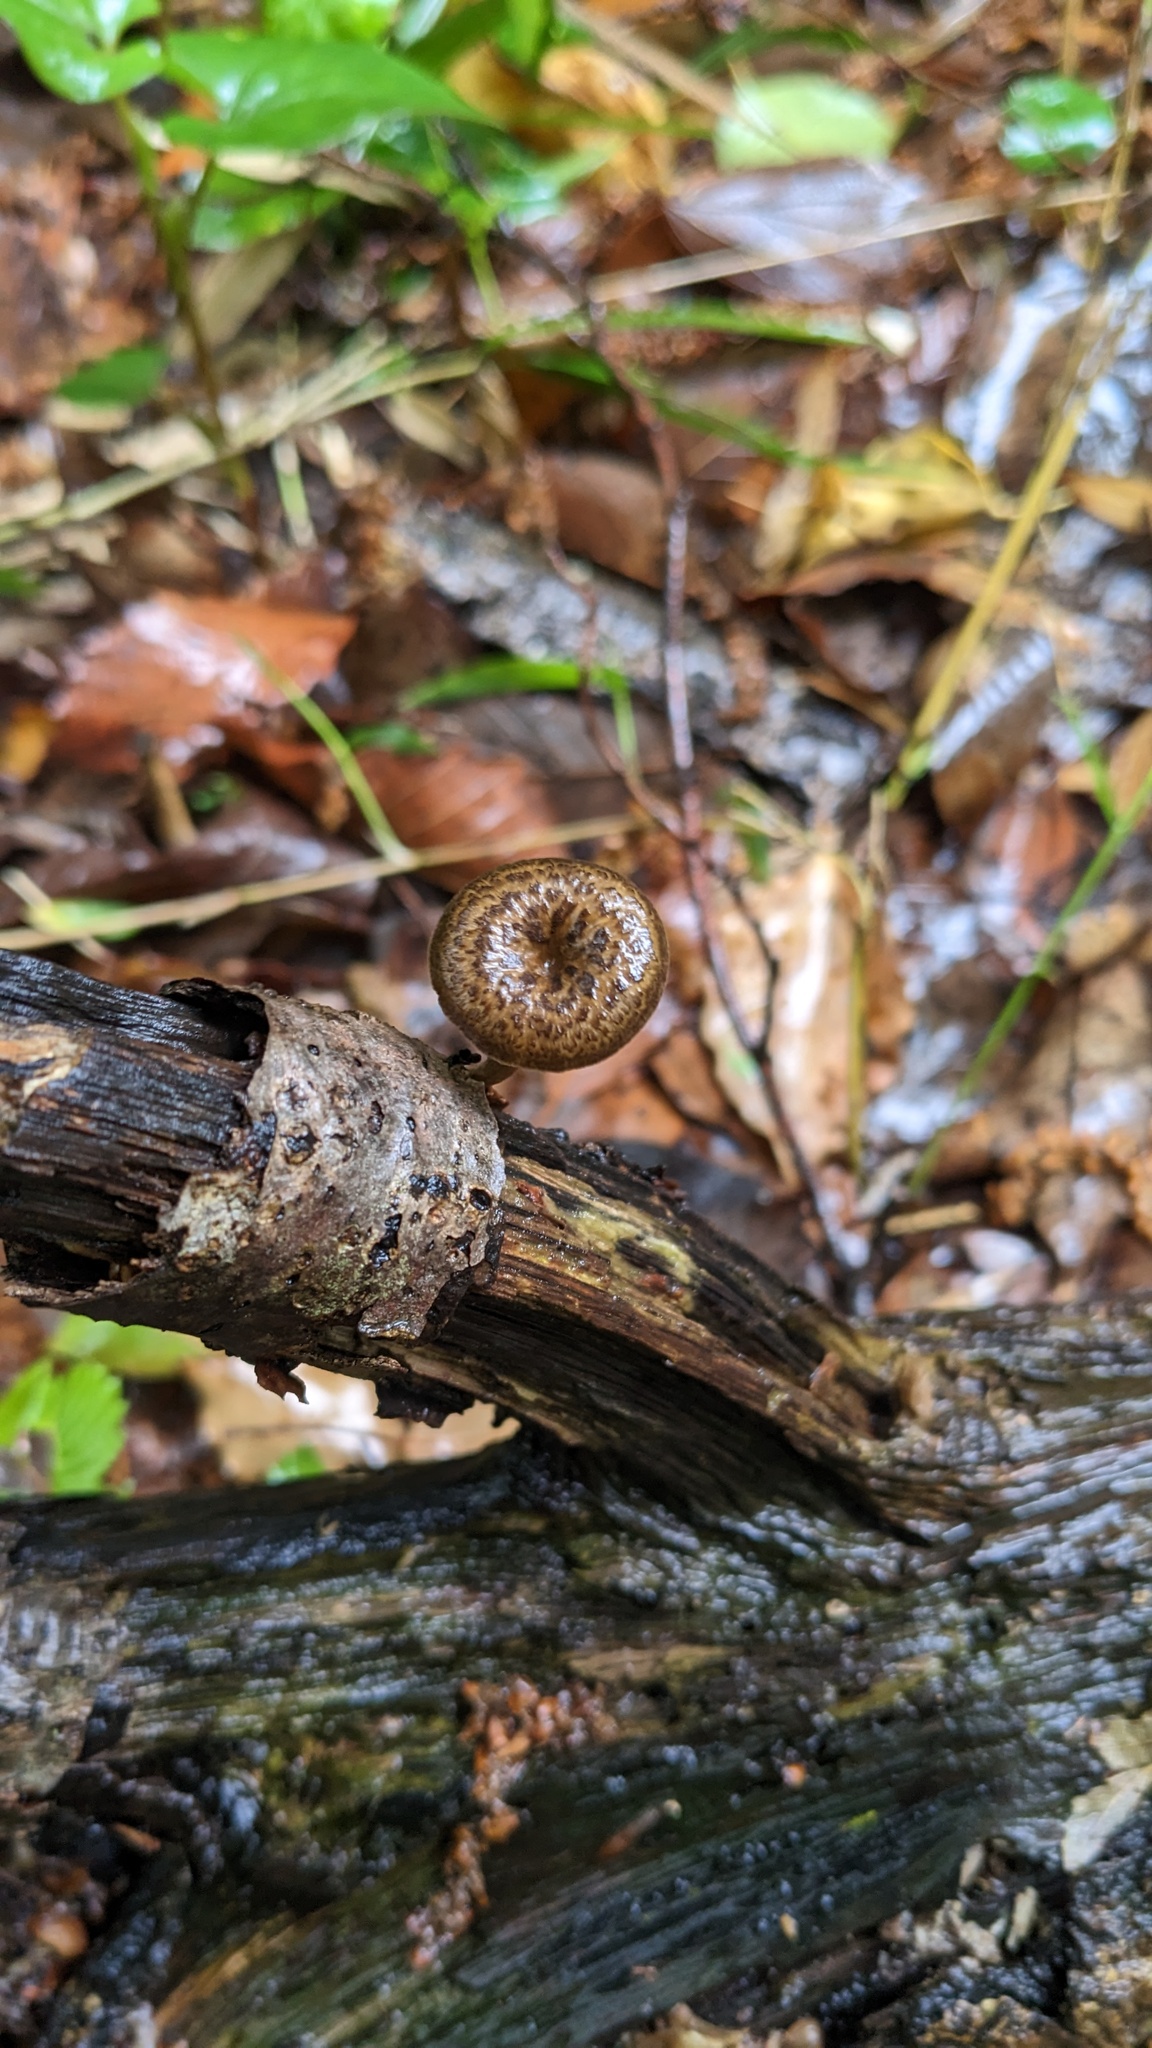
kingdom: Fungi
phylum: Basidiomycota
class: Agaricomycetes
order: Polyporales
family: Polyporaceae
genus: Lentinus
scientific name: Lentinus arcularius
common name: Spring polypore
